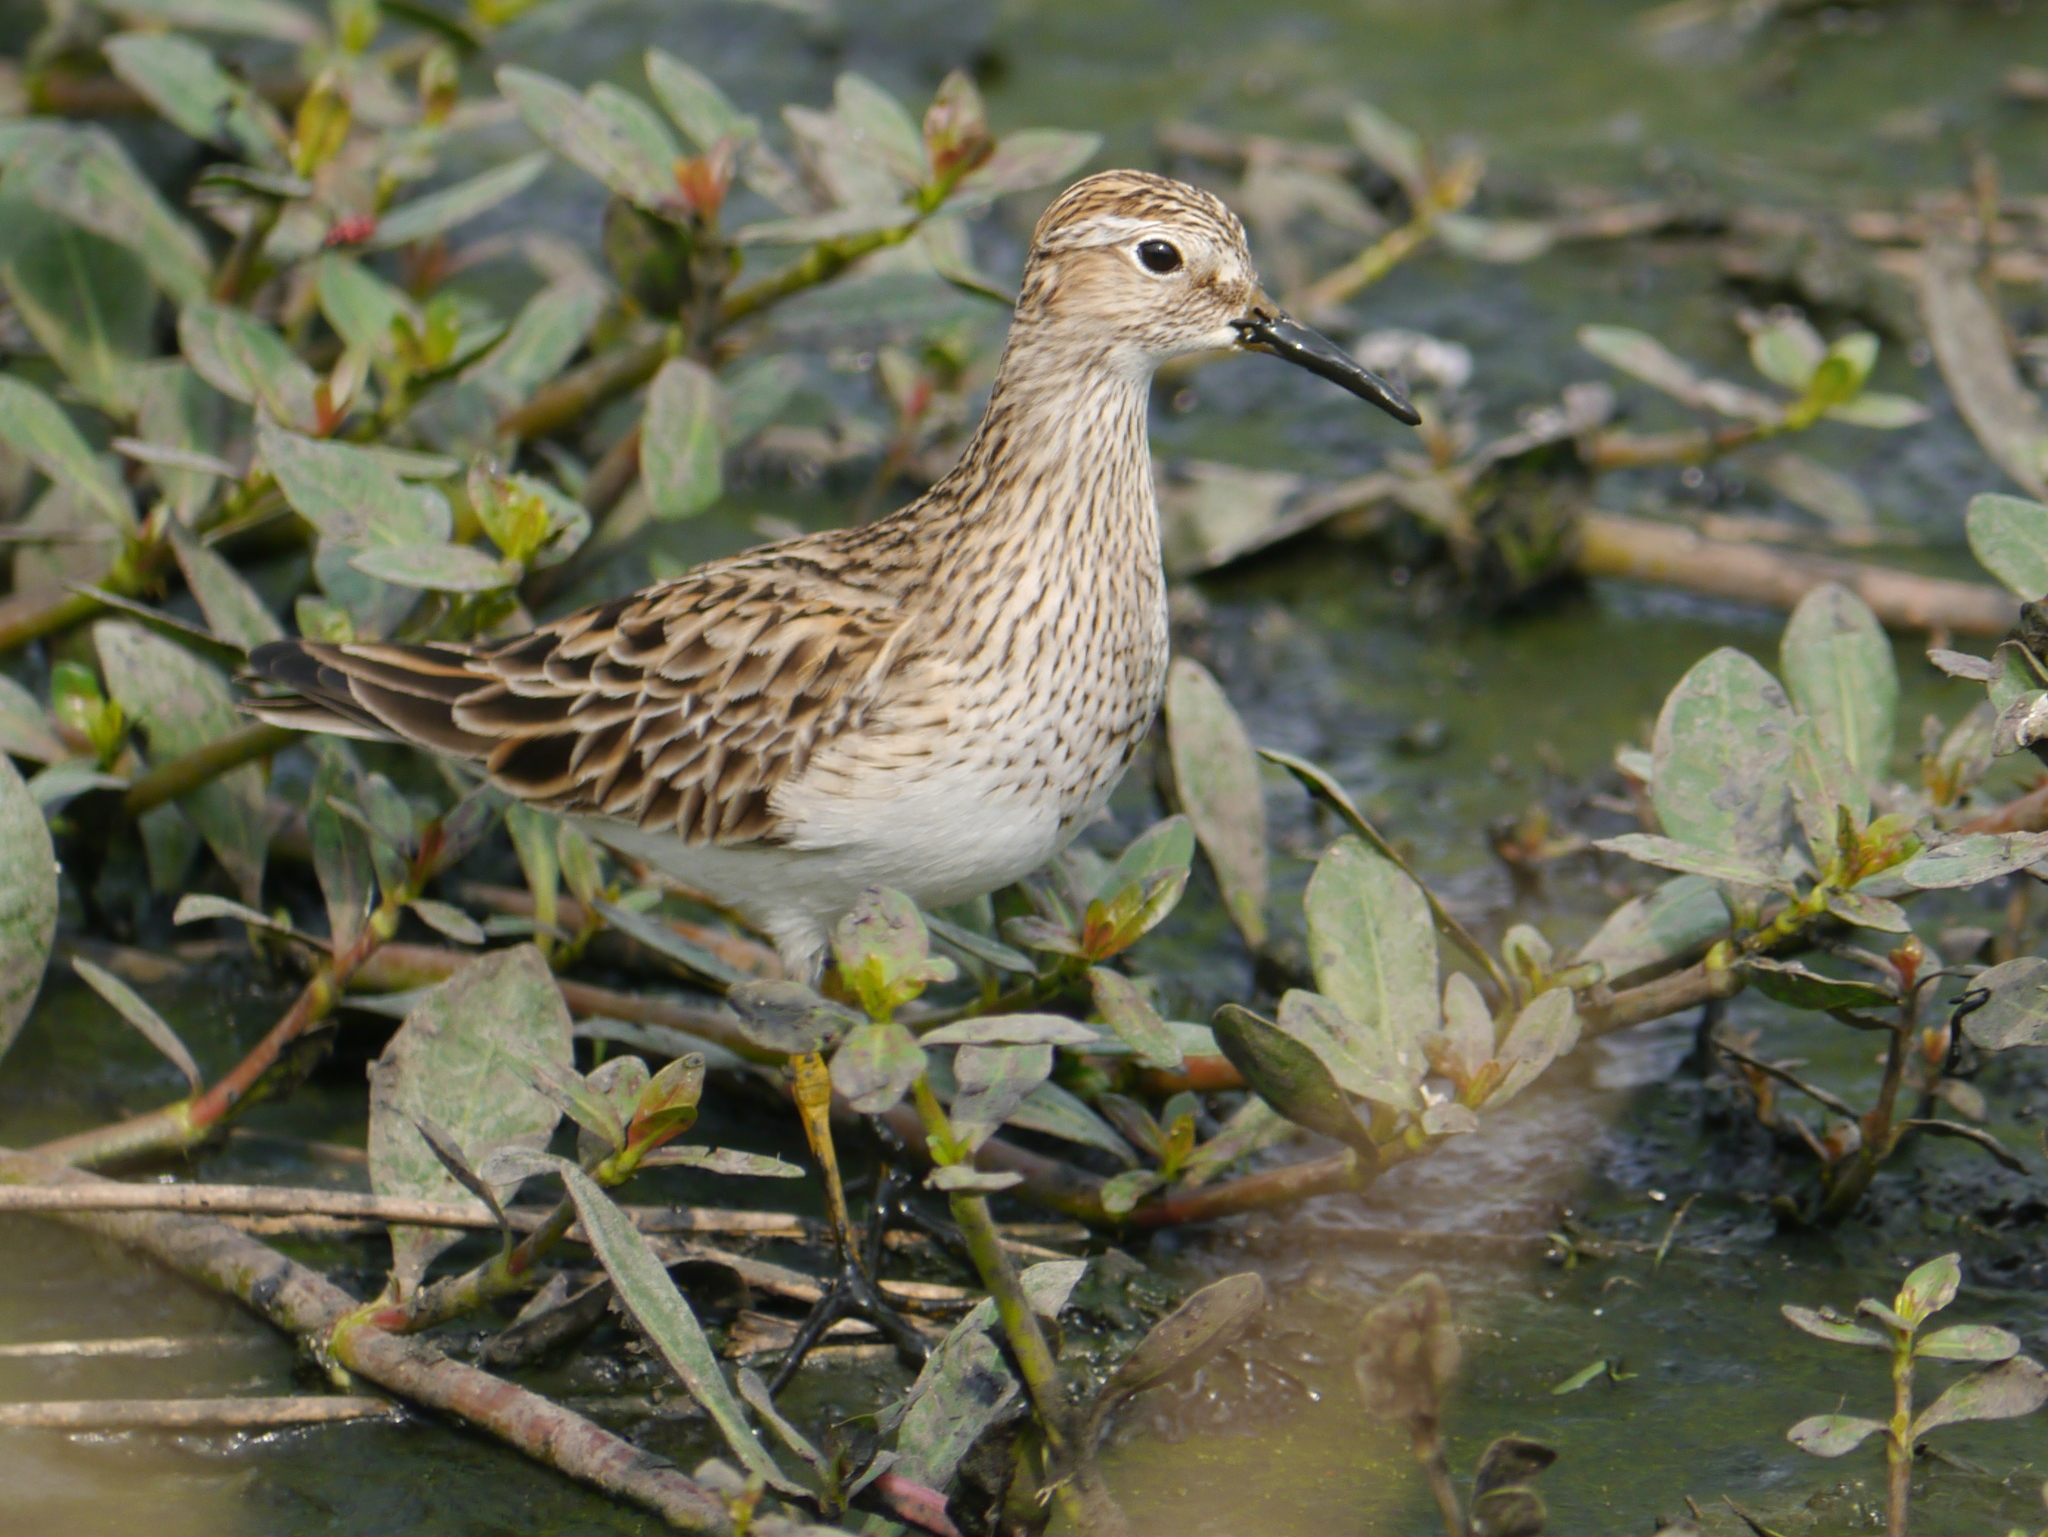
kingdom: Animalia
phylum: Chordata
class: Aves
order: Charadriiformes
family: Scolopacidae
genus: Calidris
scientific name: Calidris melanotos
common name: Pectoral sandpiper
